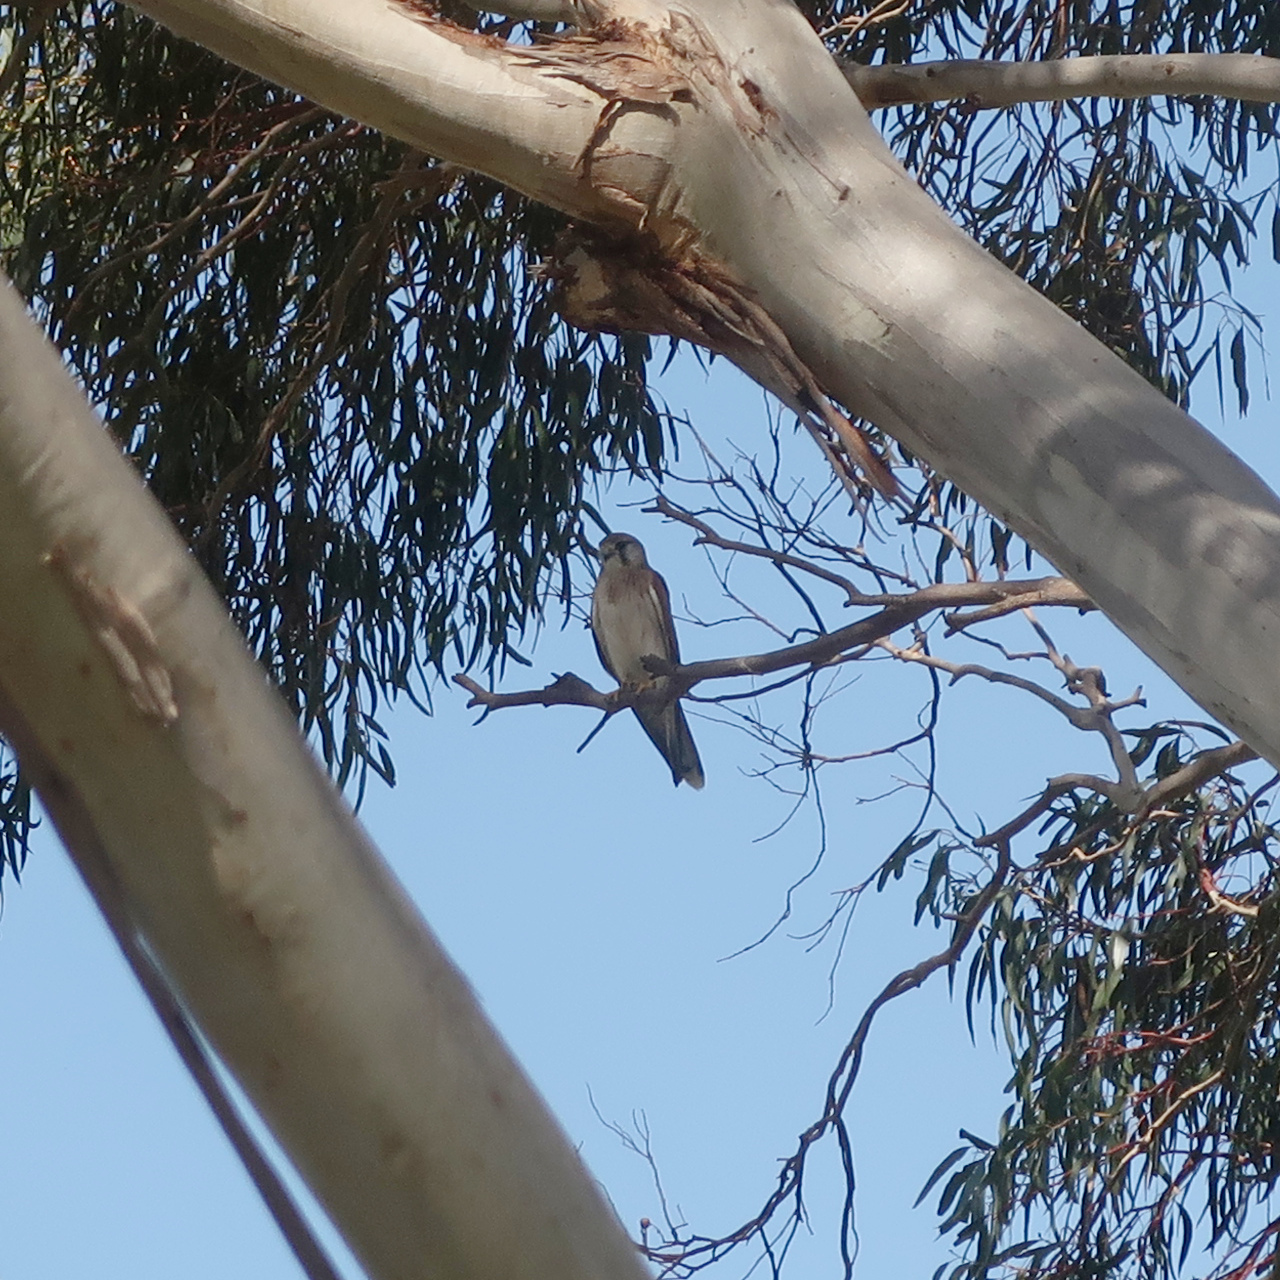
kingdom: Animalia
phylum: Chordata
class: Aves
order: Falconiformes
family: Falconidae
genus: Falco
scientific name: Falco cenchroides
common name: Nankeen kestrel
